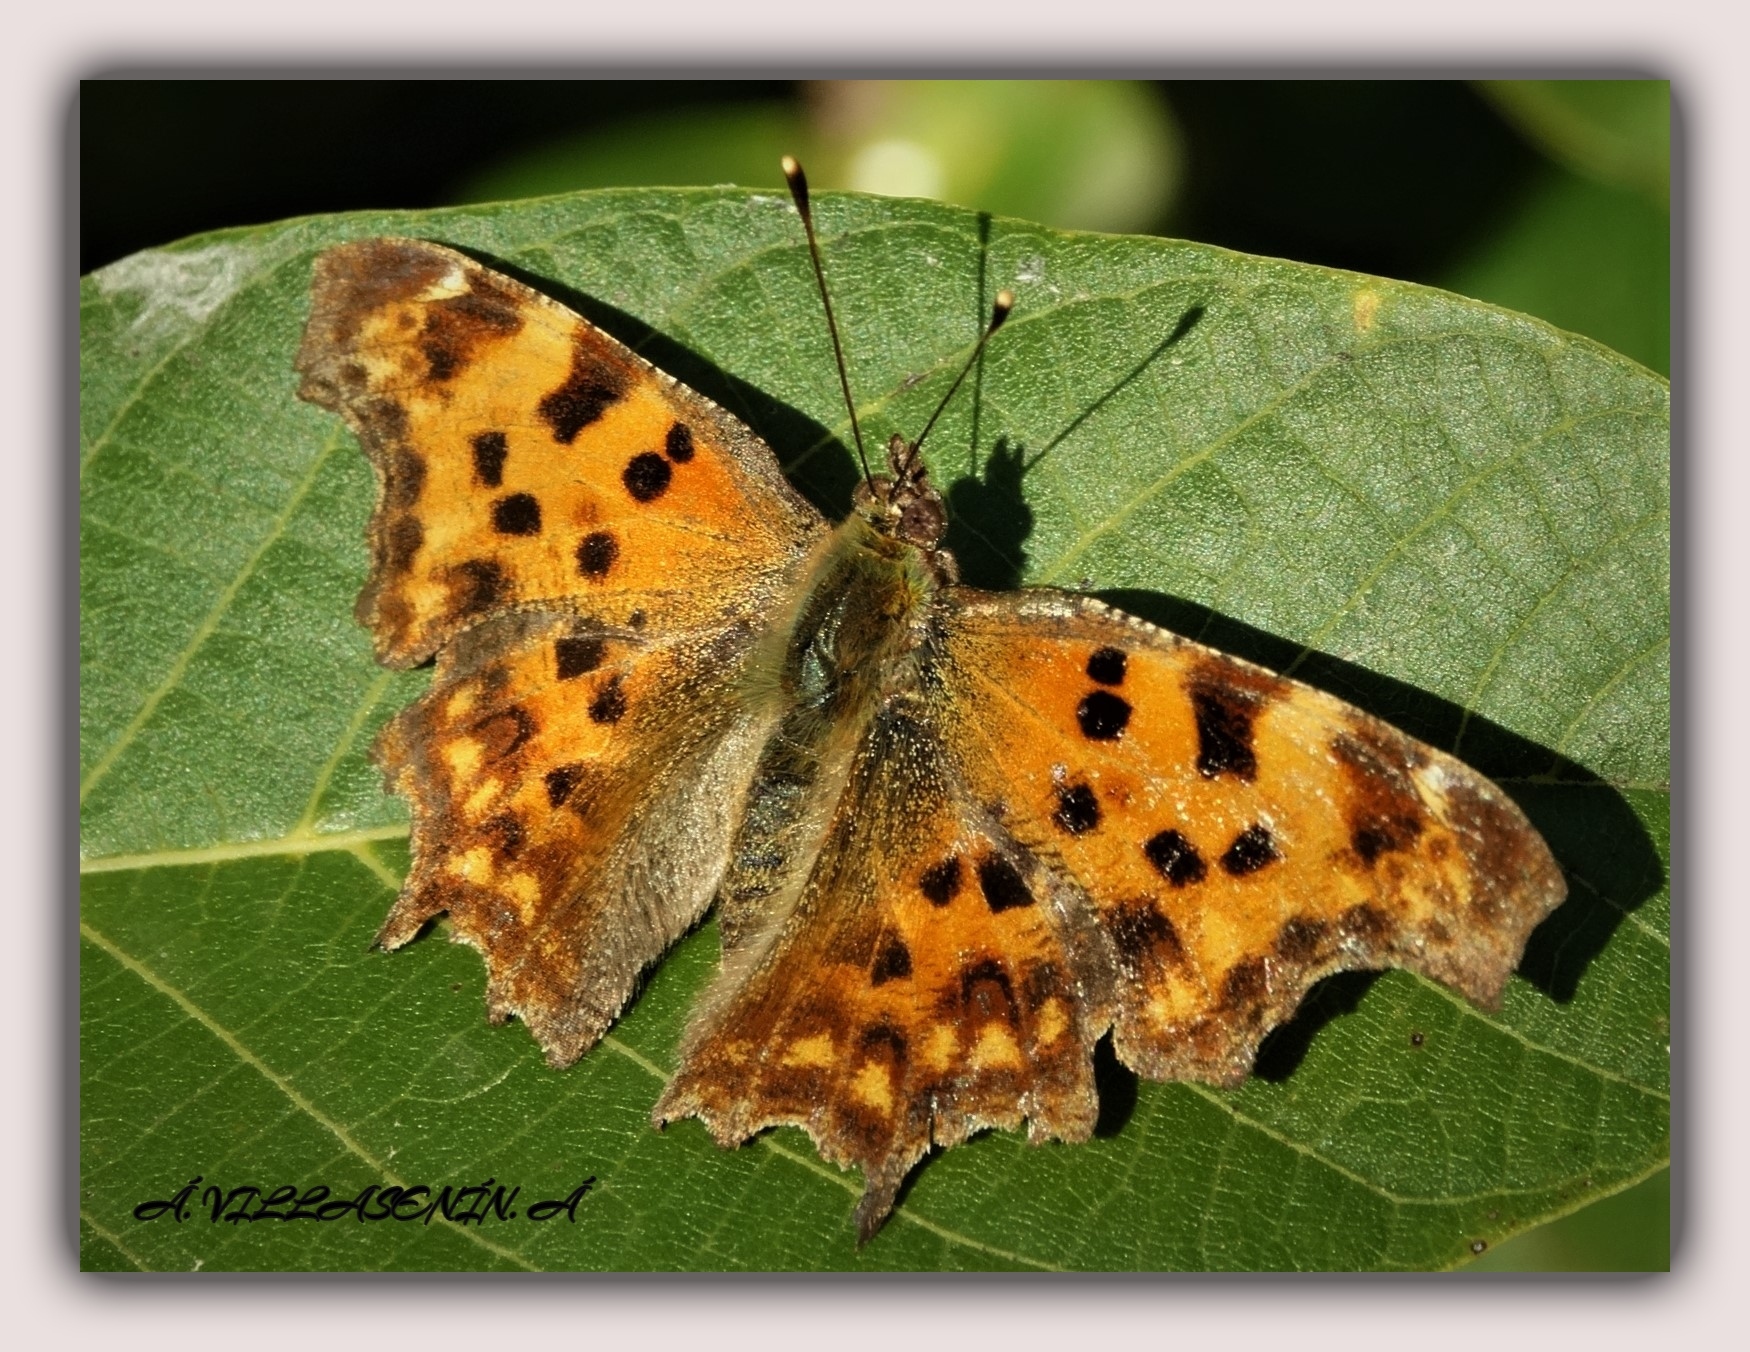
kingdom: Animalia
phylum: Arthropoda
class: Insecta
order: Lepidoptera
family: Nymphalidae
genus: Polygonia
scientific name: Polygonia c-album
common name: Comma
